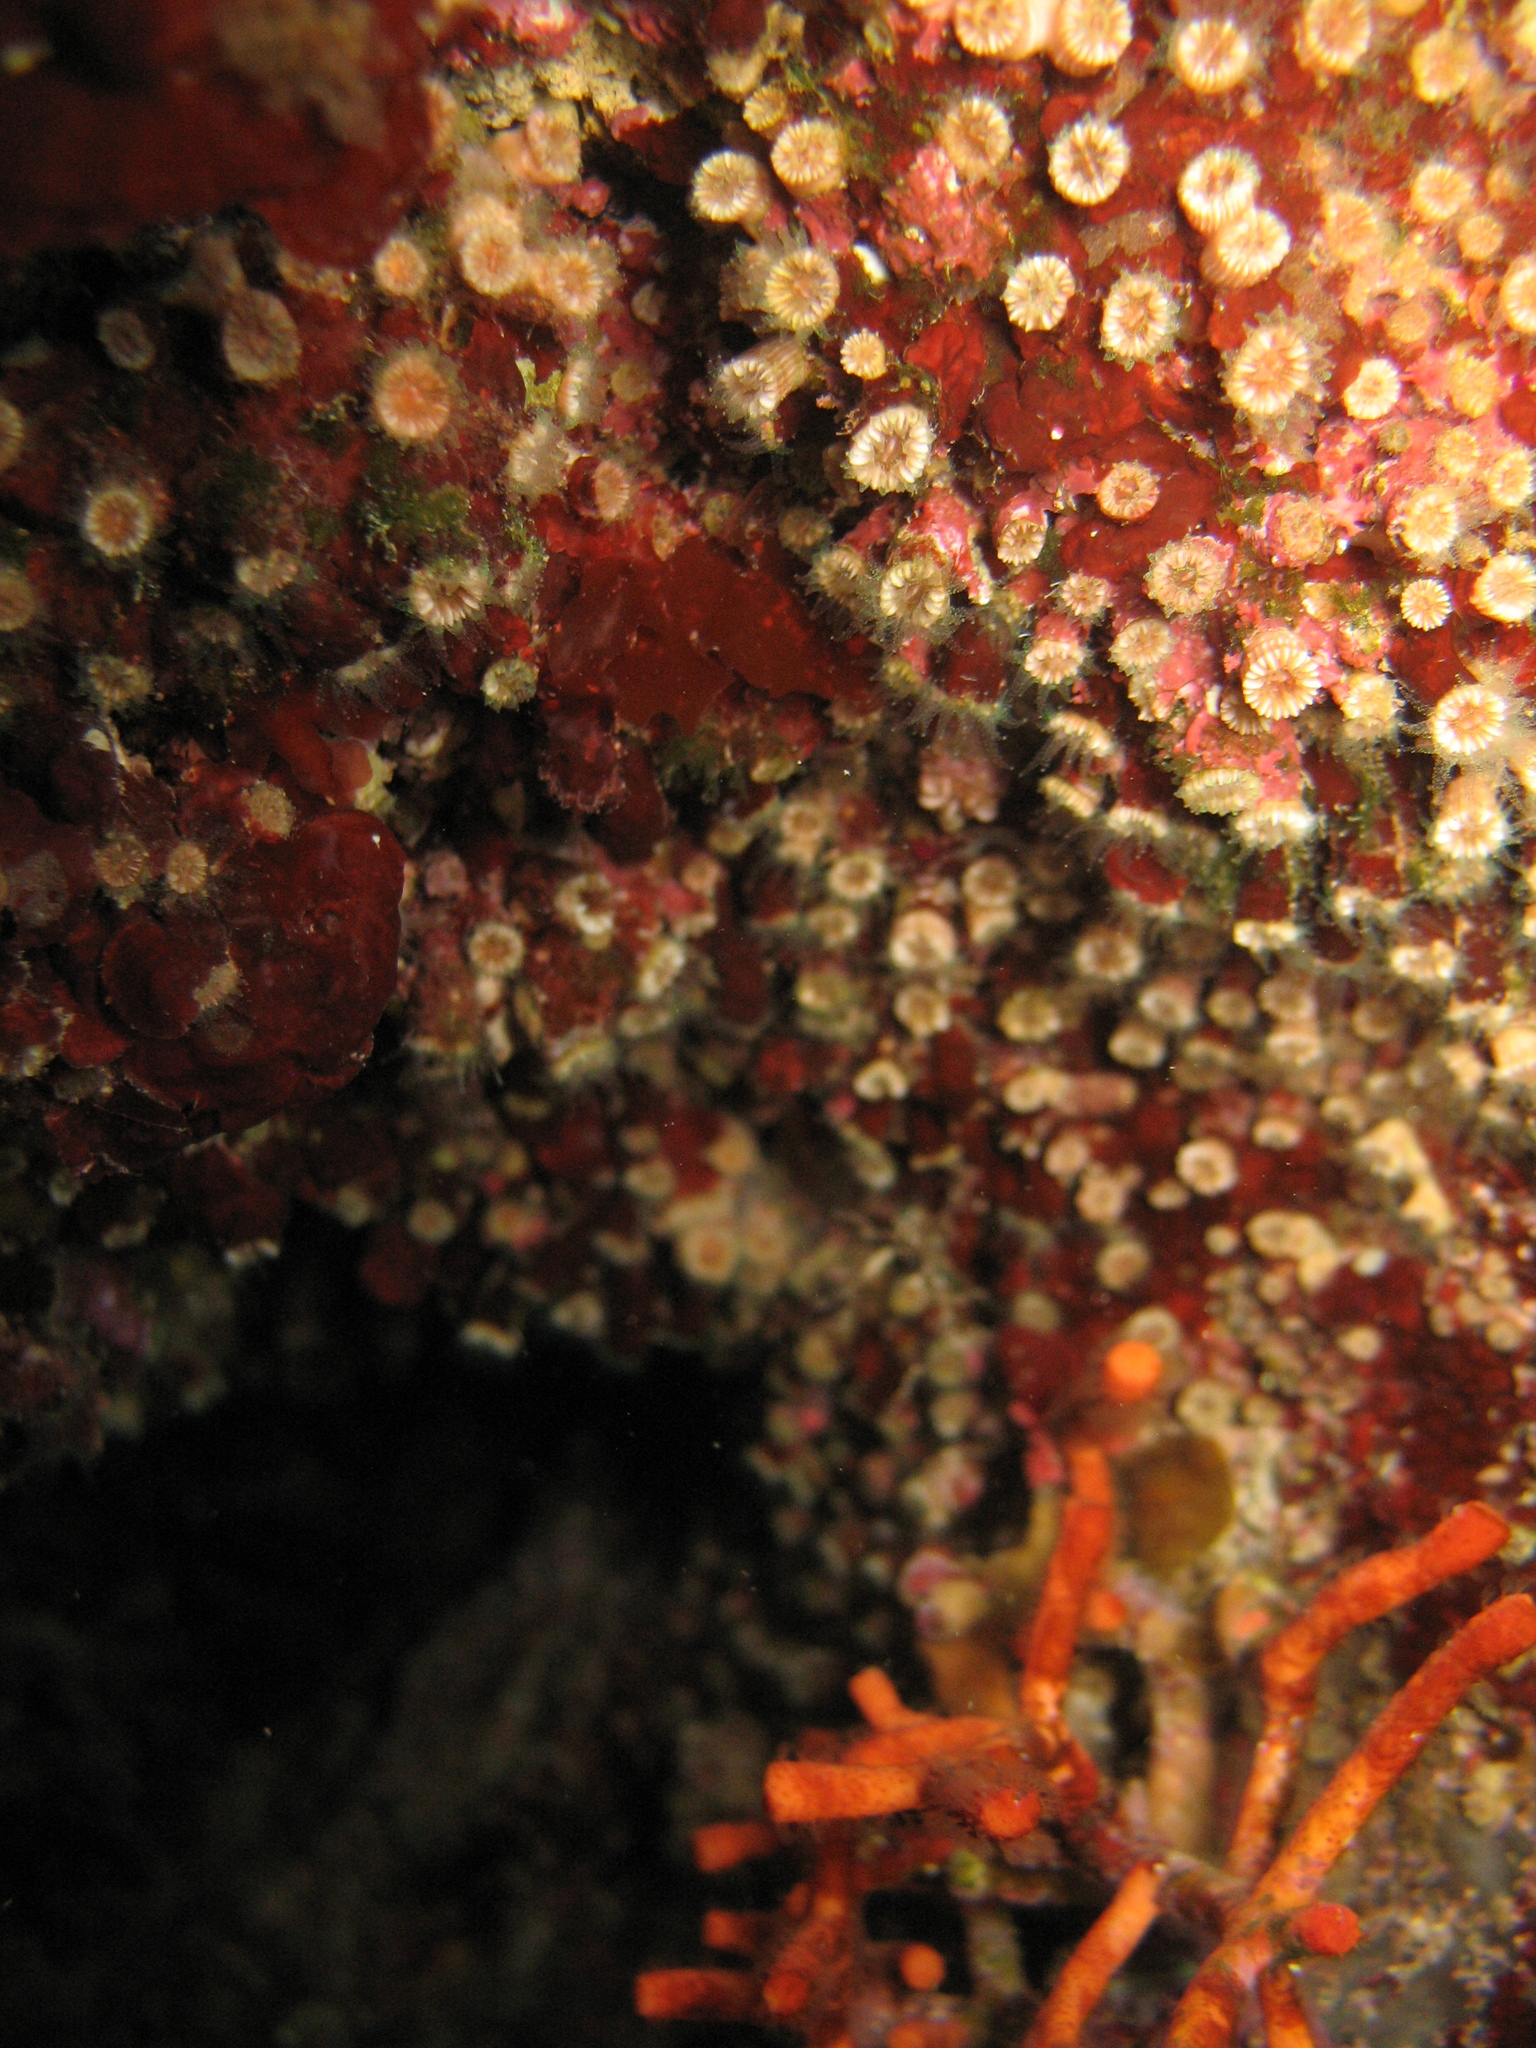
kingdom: Animalia
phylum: Cnidaria
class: Anthozoa
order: Scleractinia
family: Caryophylliidae
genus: Polycyathus
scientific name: Polycyathus muellerae
